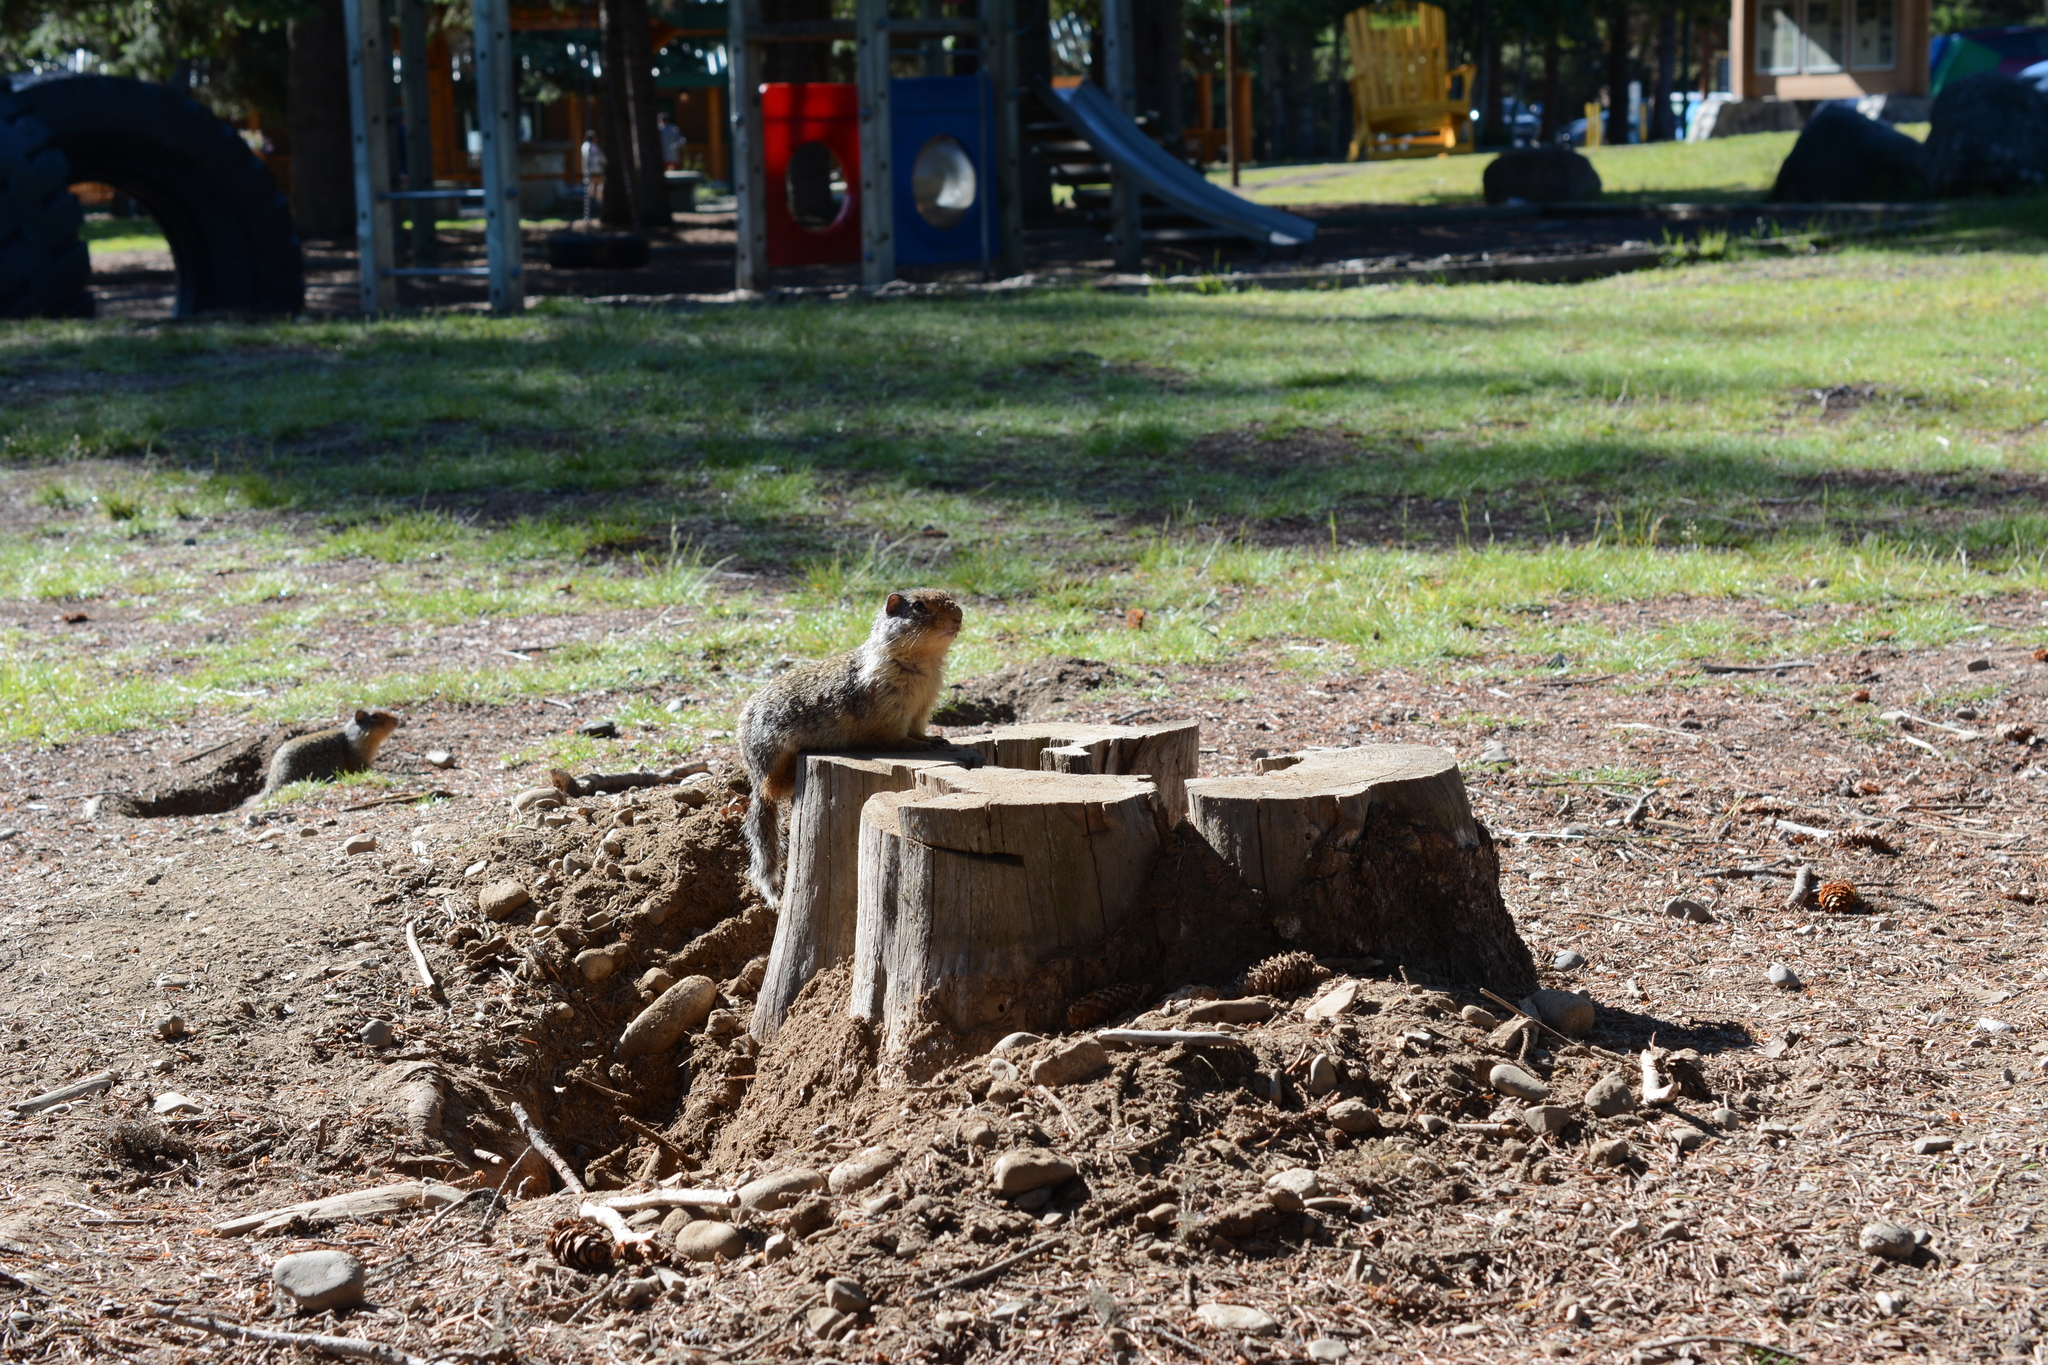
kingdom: Animalia
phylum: Chordata
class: Mammalia
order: Rodentia
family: Sciuridae
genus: Urocitellus
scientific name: Urocitellus columbianus
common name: Columbian ground squirrel
